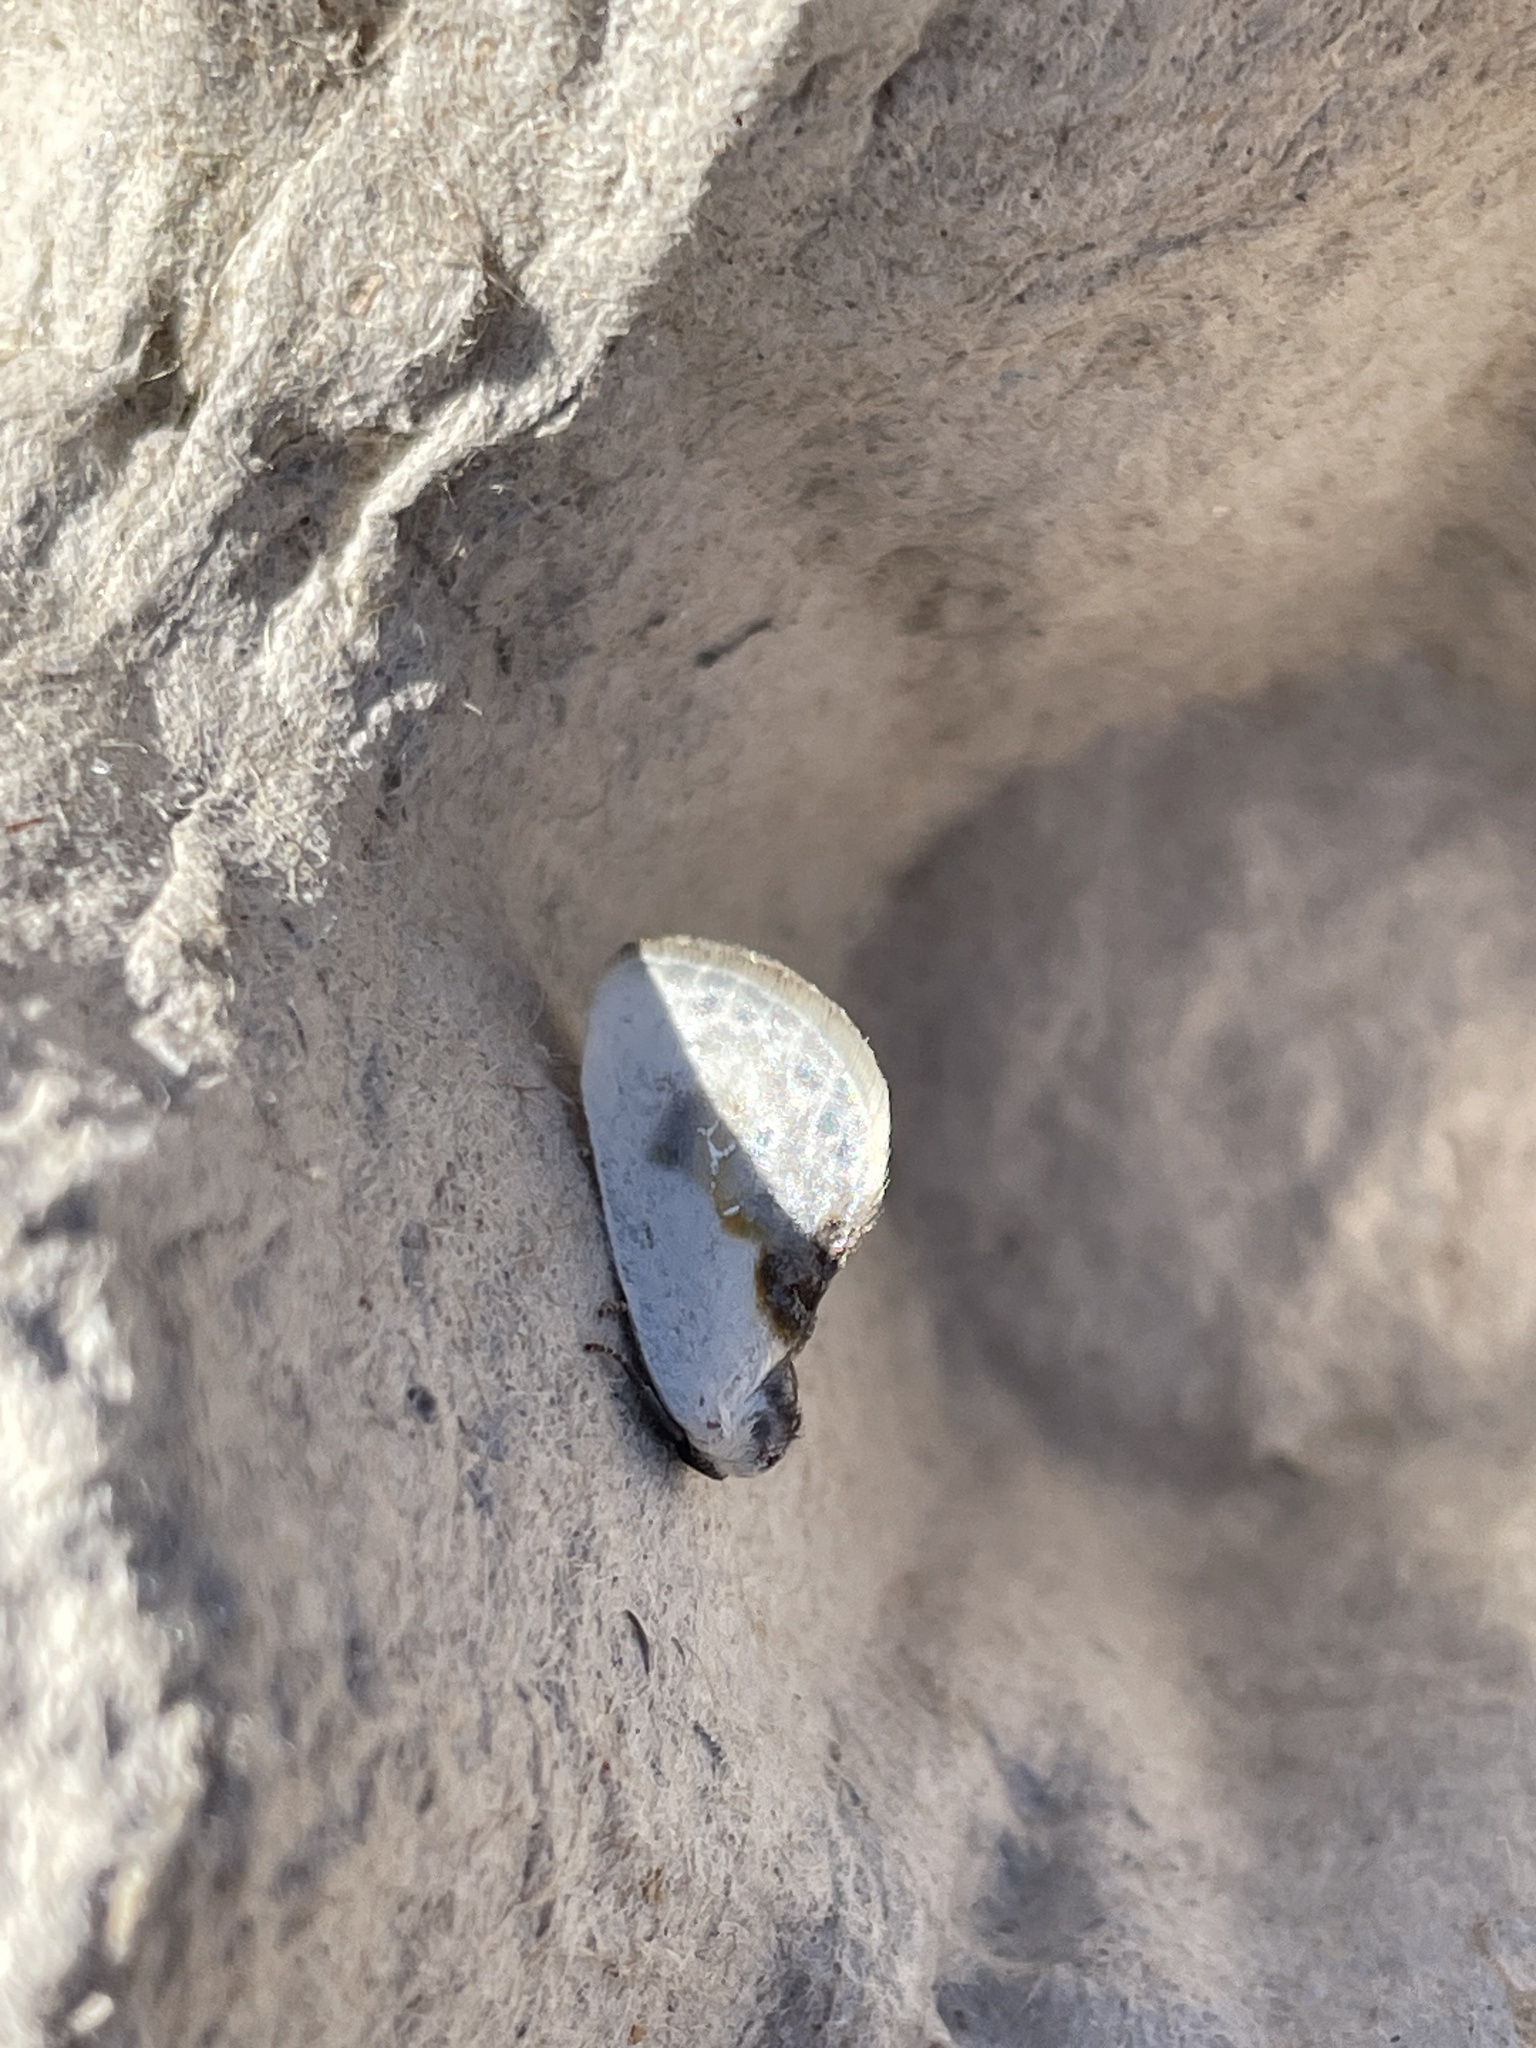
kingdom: Animalia
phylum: Arthropoda
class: Insecta
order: Lepidoptera
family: Drepanidae
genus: Cilix
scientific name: Cilix glaucata
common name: Chinese character
